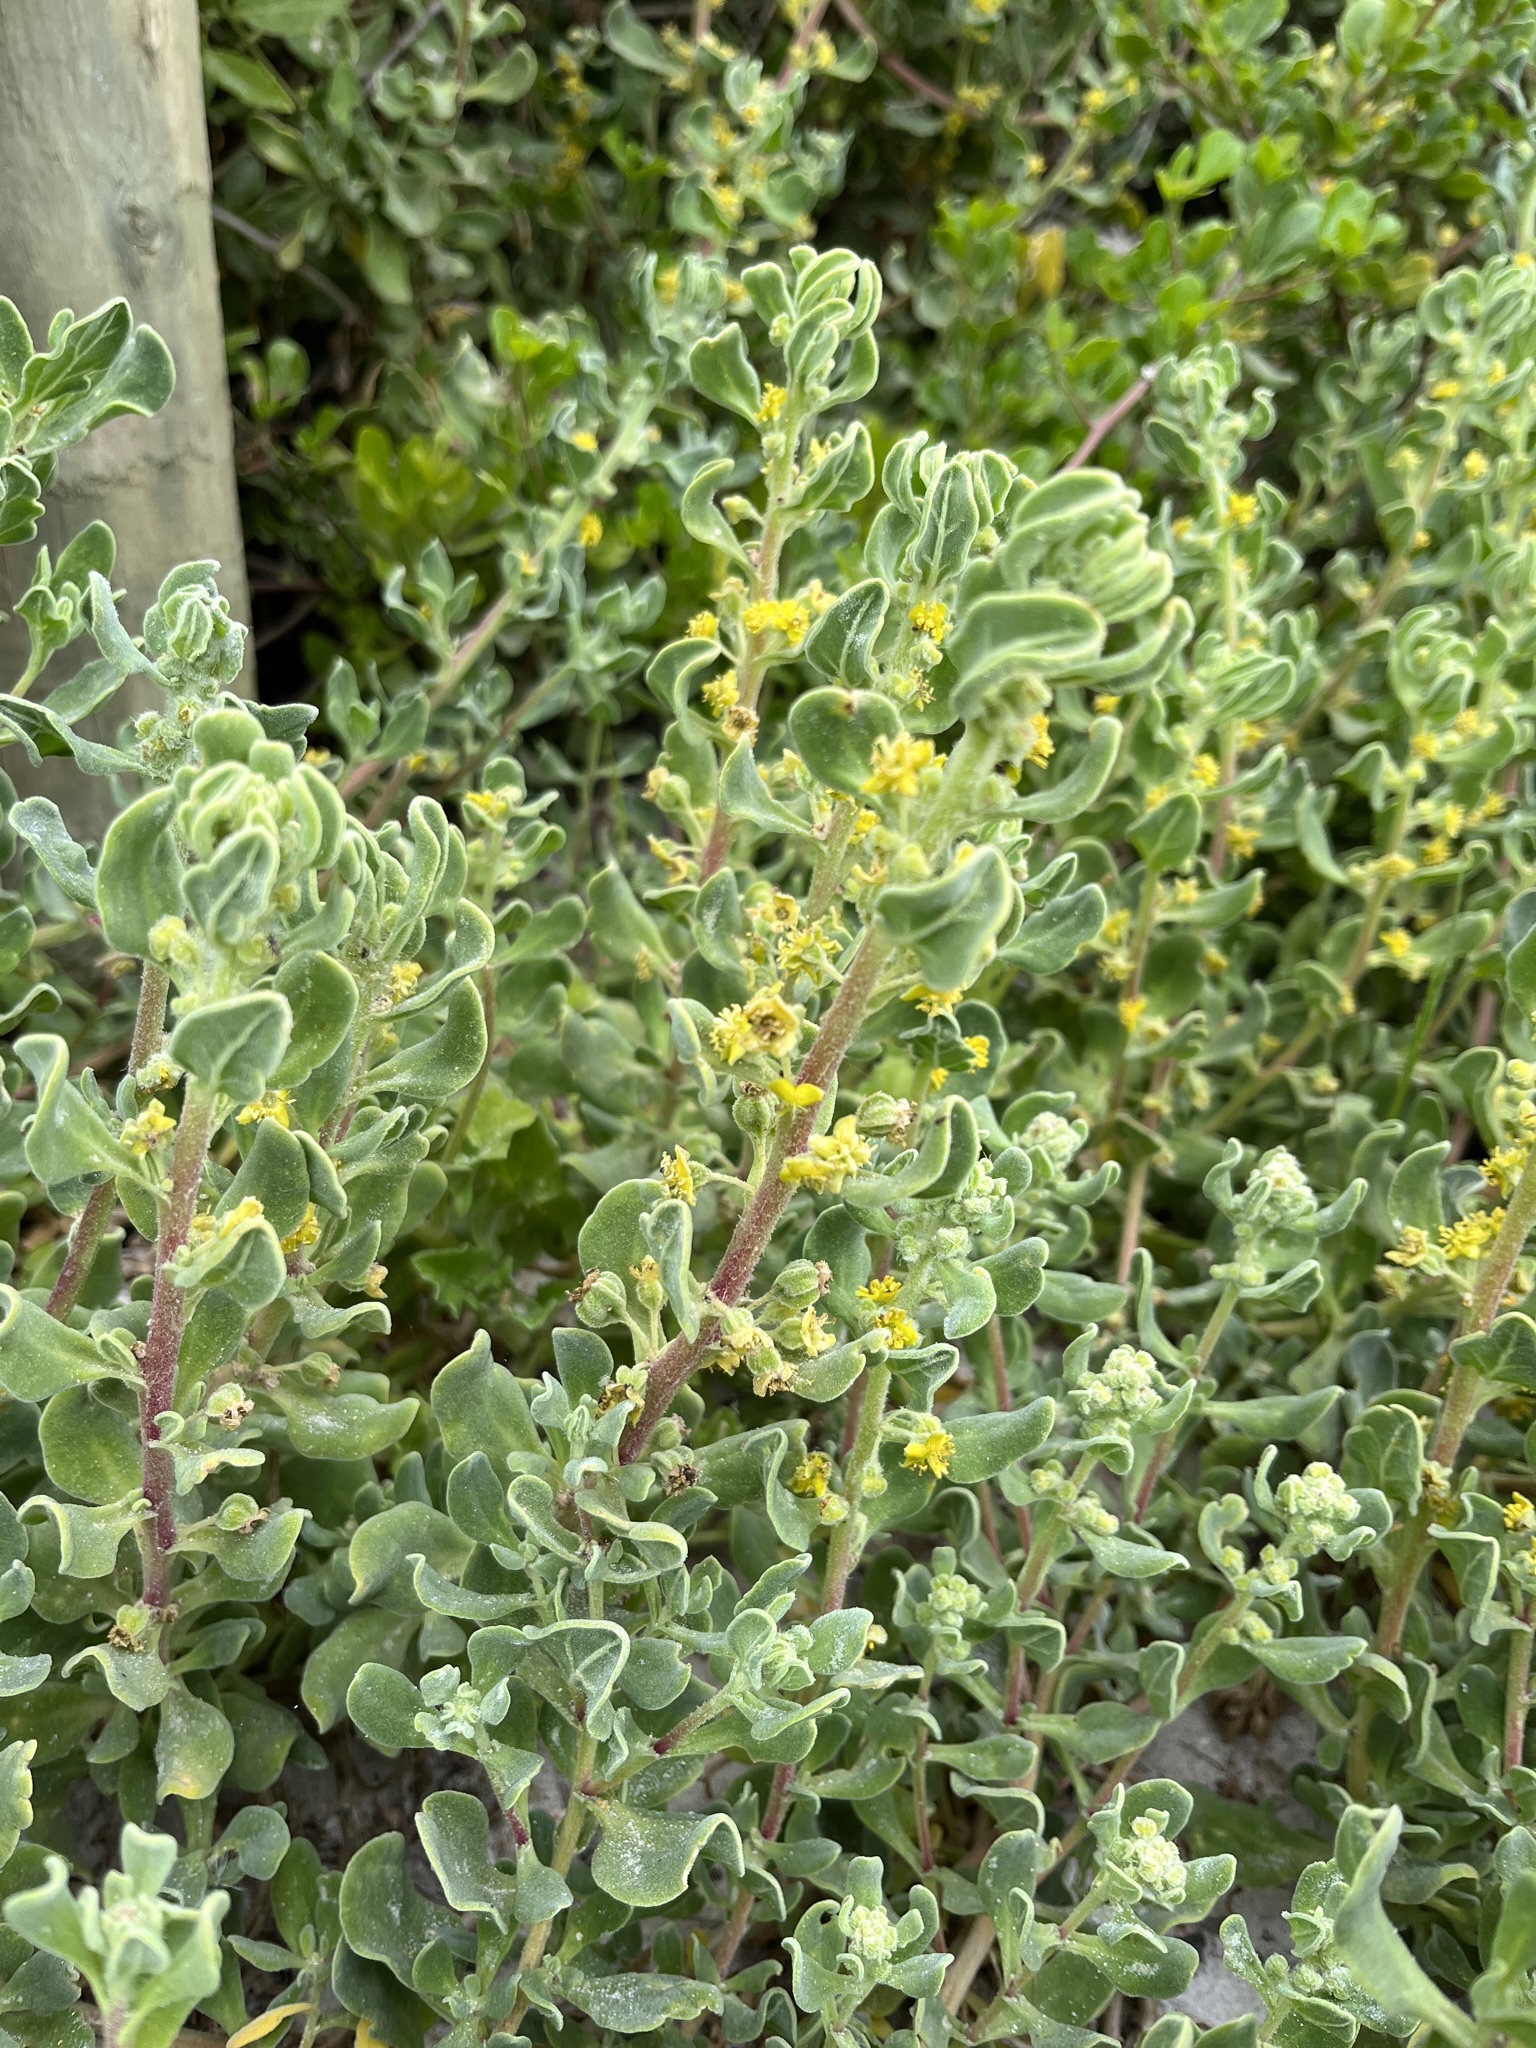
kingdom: Plantae
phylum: Tracheophyta
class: Magnoliopsida
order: Caryophyllales
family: Aizoaceae
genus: Tetragonia
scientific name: Tetragonia decumbens
